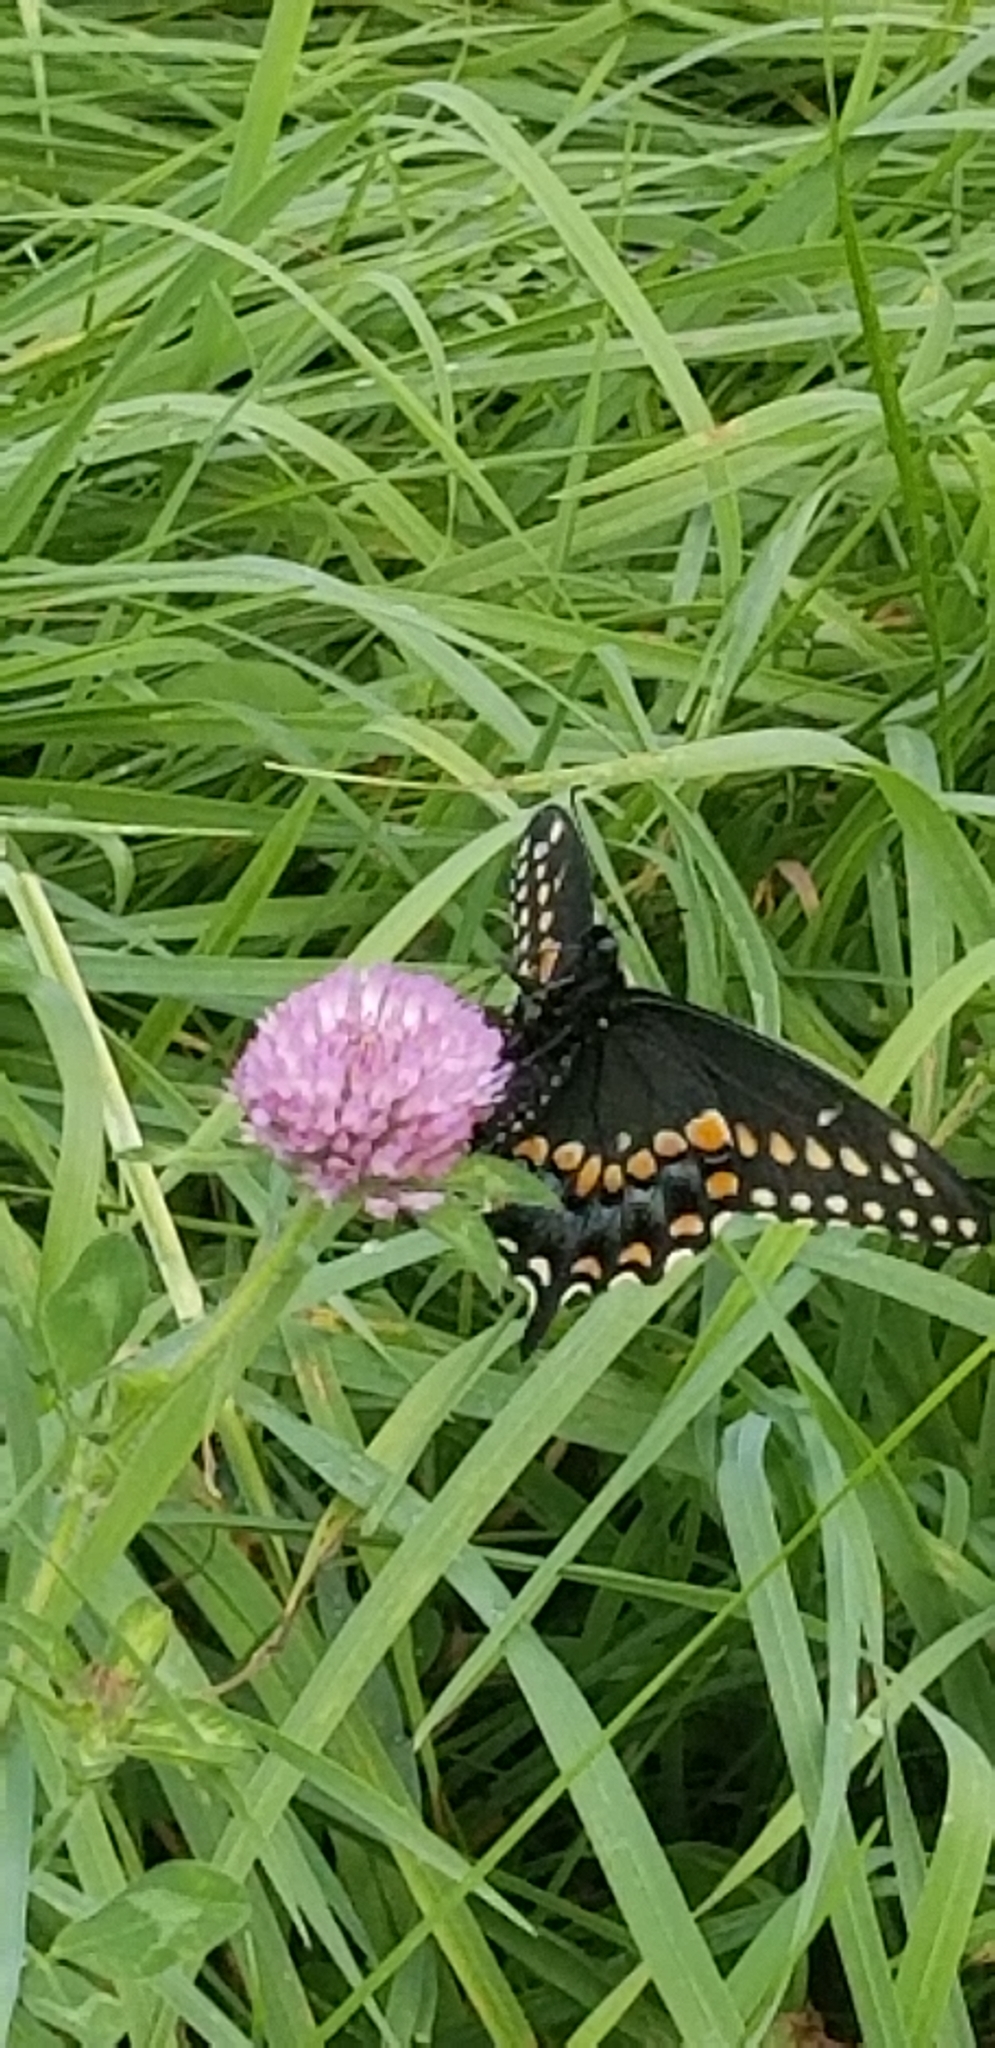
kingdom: Animalia
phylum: Arthropoda
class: Insecta
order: Lepidoptera
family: Papilionidae
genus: Papilio
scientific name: Papilio polyxenes
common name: Black swallowtail
